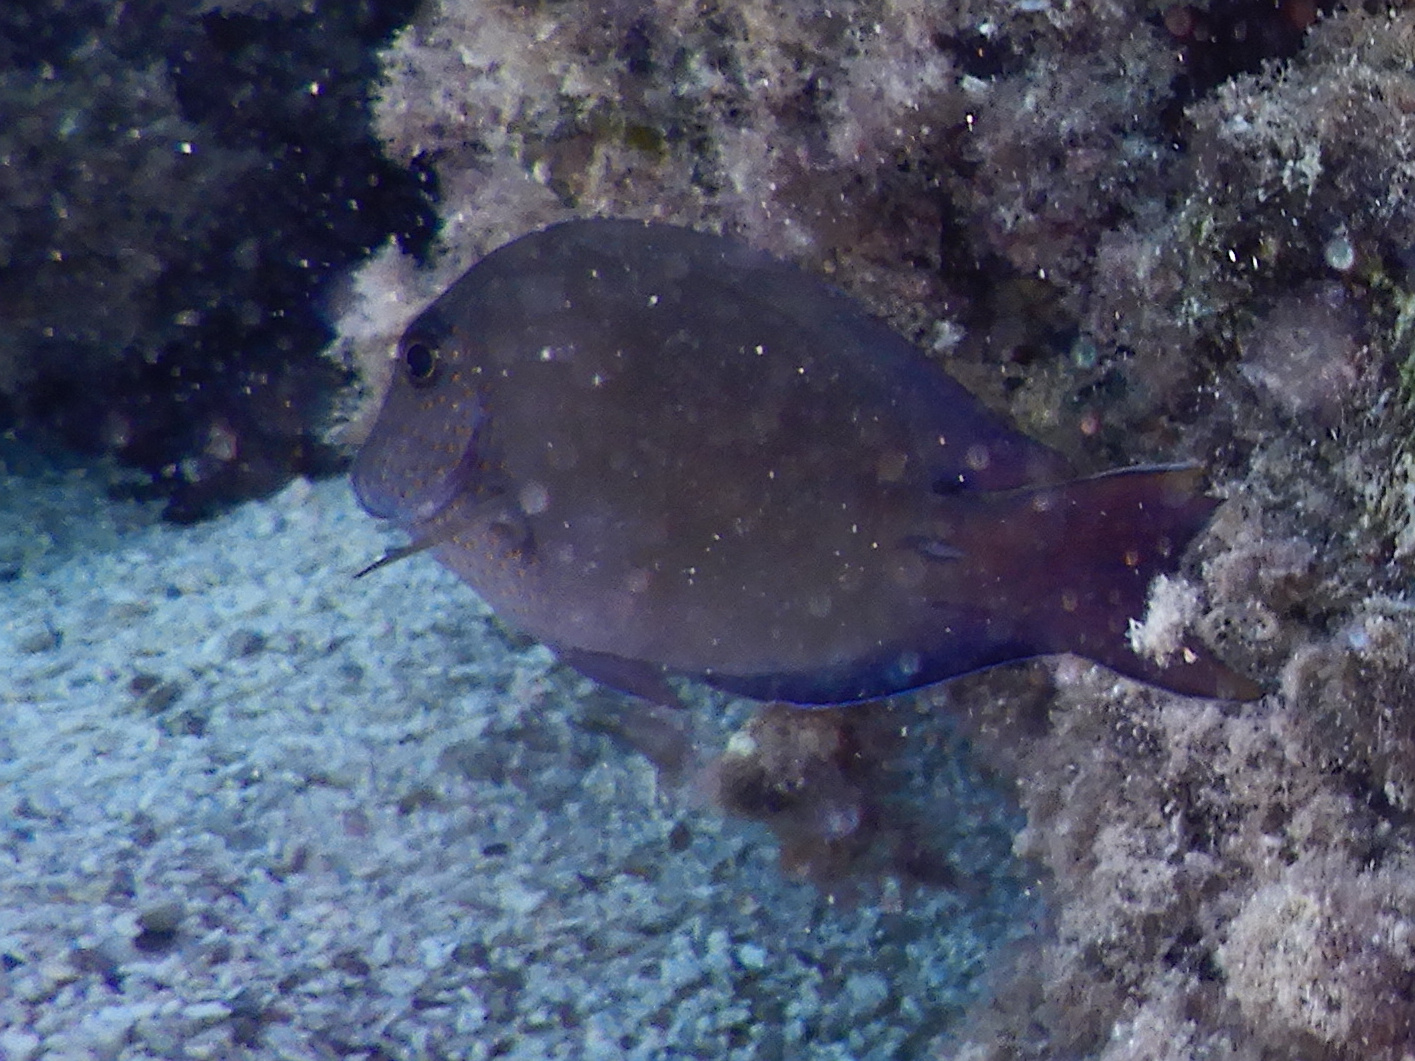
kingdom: Animalia
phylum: Chordata
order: Perciformes
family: Acanthuridae
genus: Acanthurus
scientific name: Acanthurus nigrofuscus
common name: Blackspot surgeonfish
